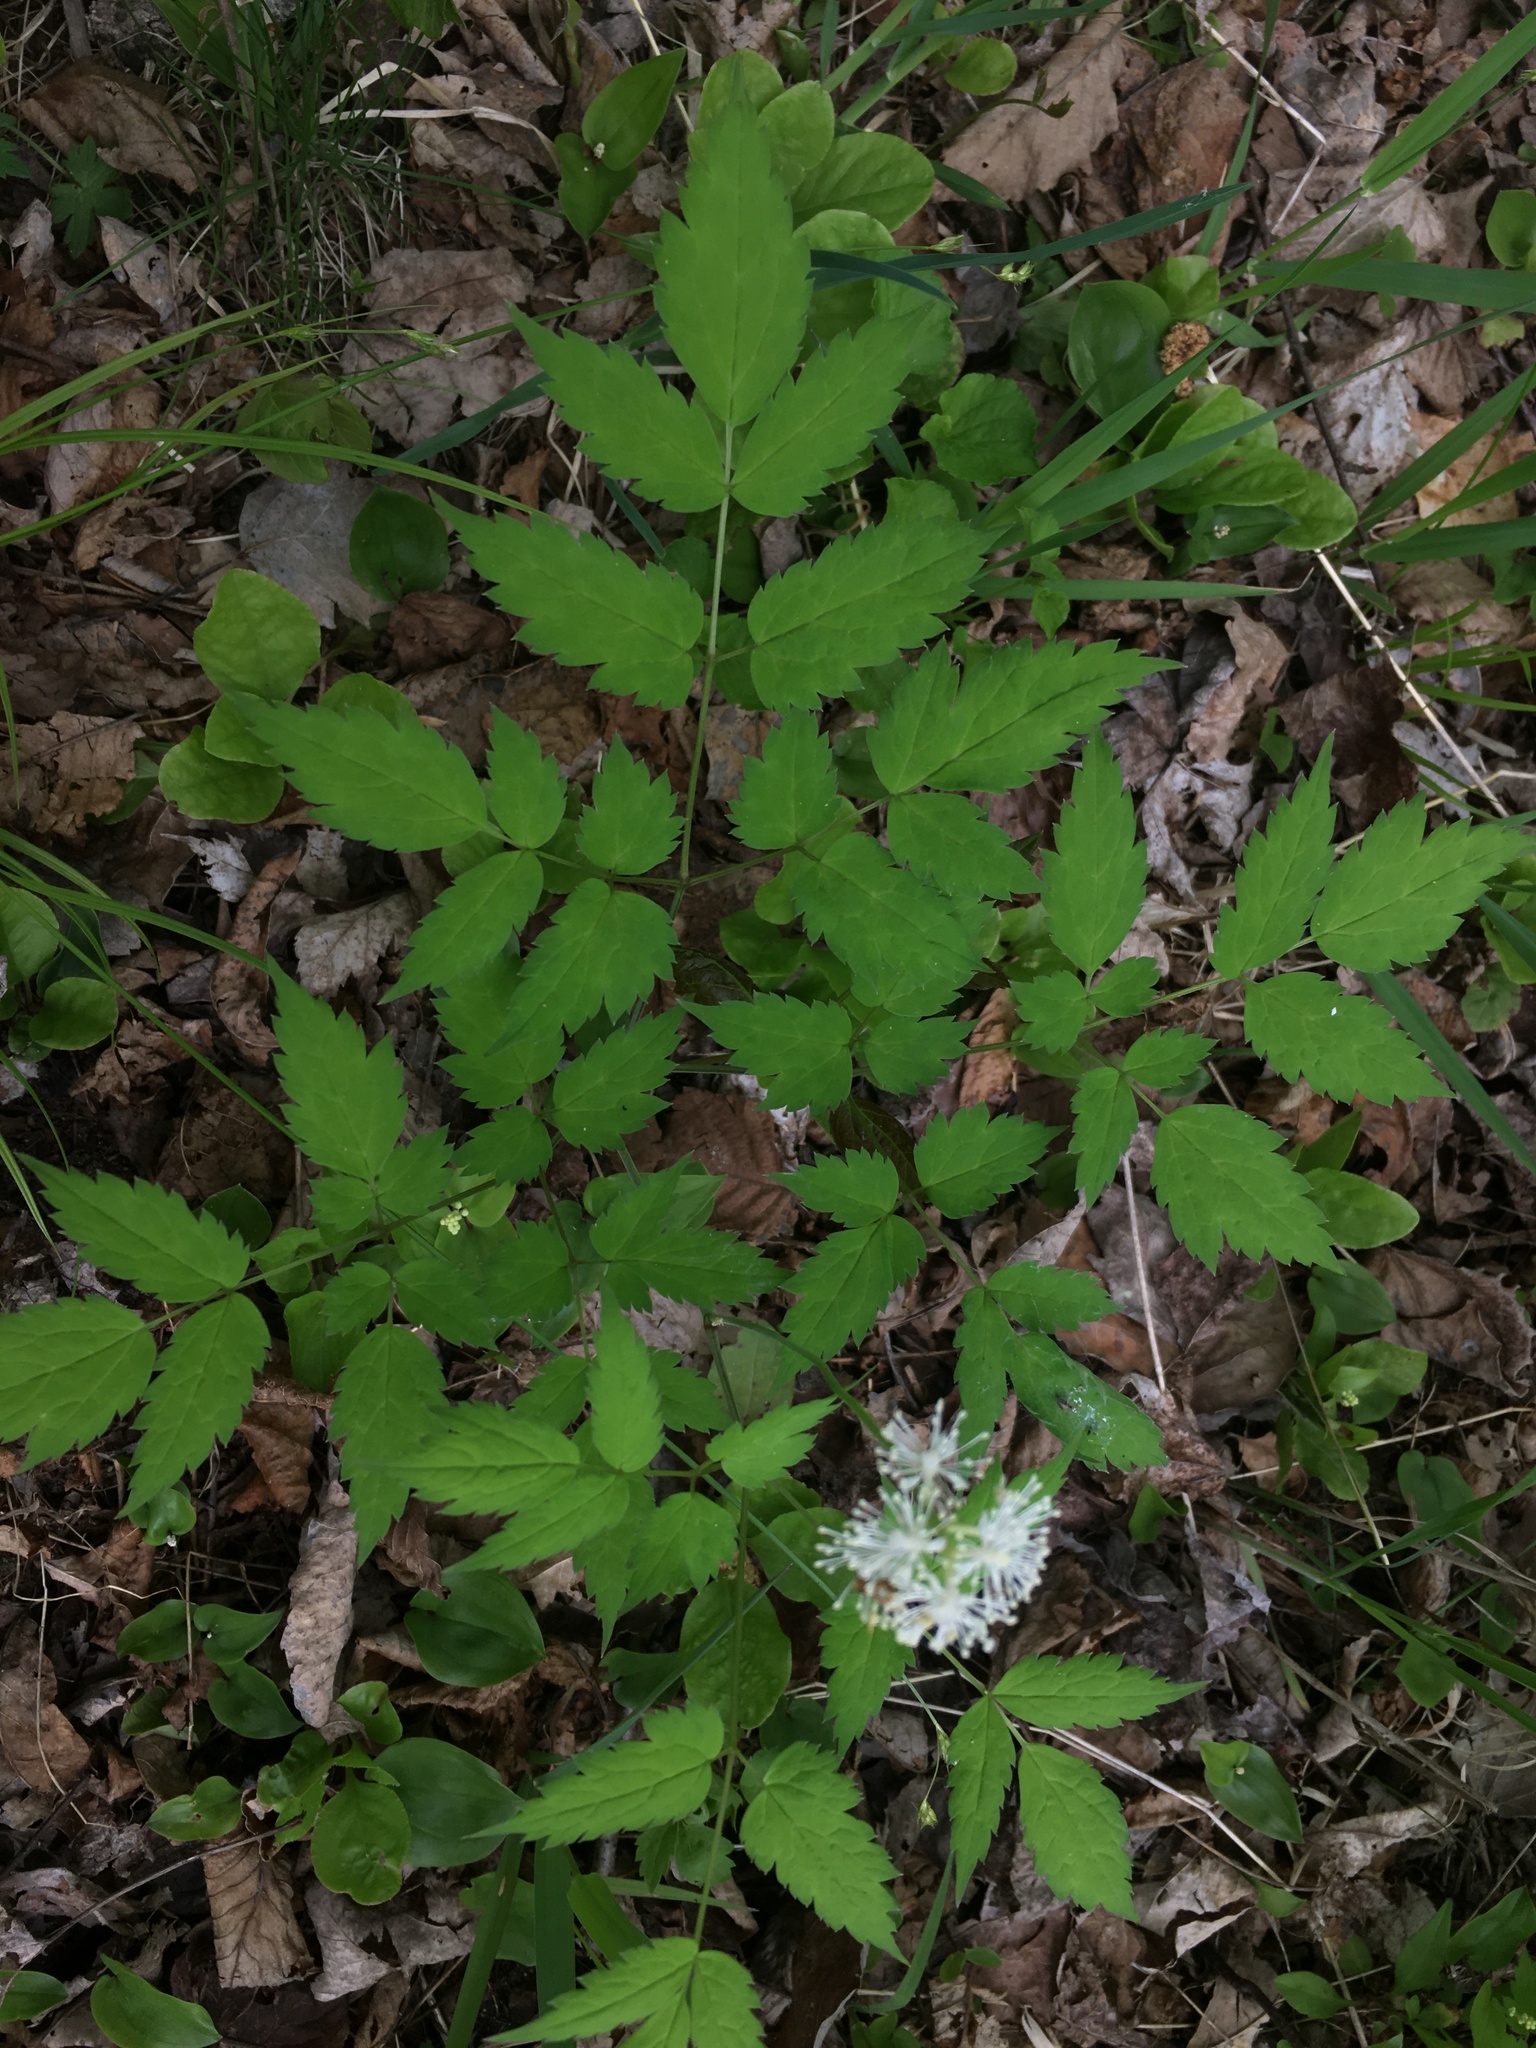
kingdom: Plantae
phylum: Tracheophyta
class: Magnoliopsida
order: Ranunculales
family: Ranunculaceae
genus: Actaea
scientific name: Actaea pachypoda
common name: Doll's-eyes
